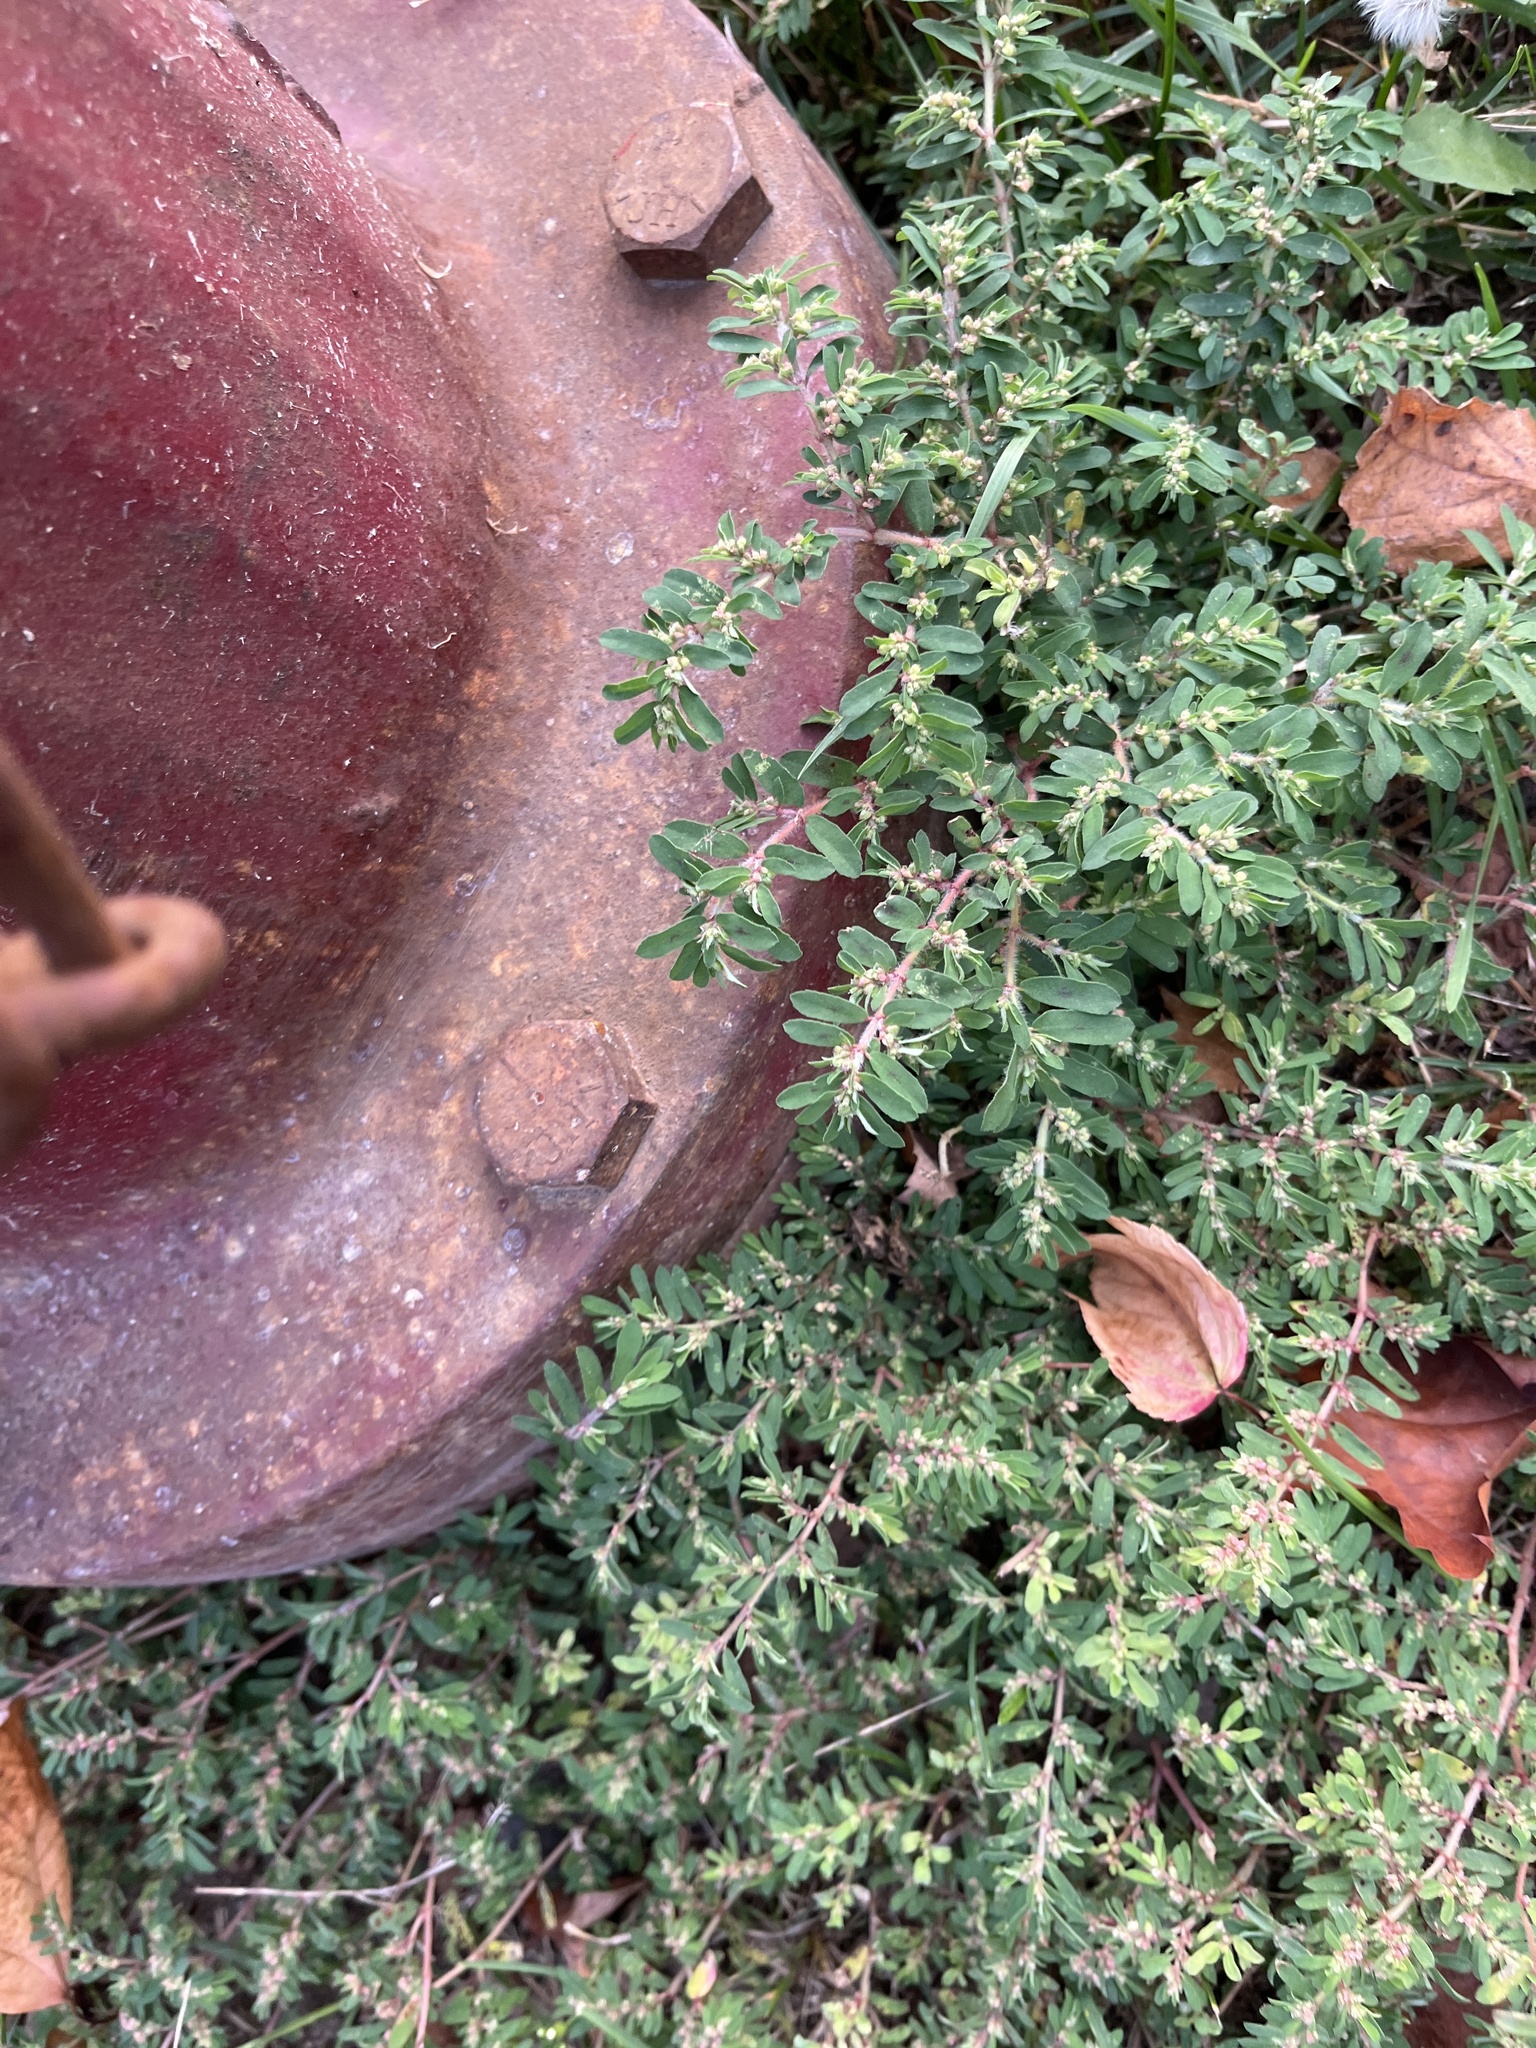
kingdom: Plantae
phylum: Tracheophyta
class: Magnoliopsida
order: Malpighiales
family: Euphorbiaceae
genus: Euphorbia
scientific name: Euphorbia maculata
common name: Spotted spurge
